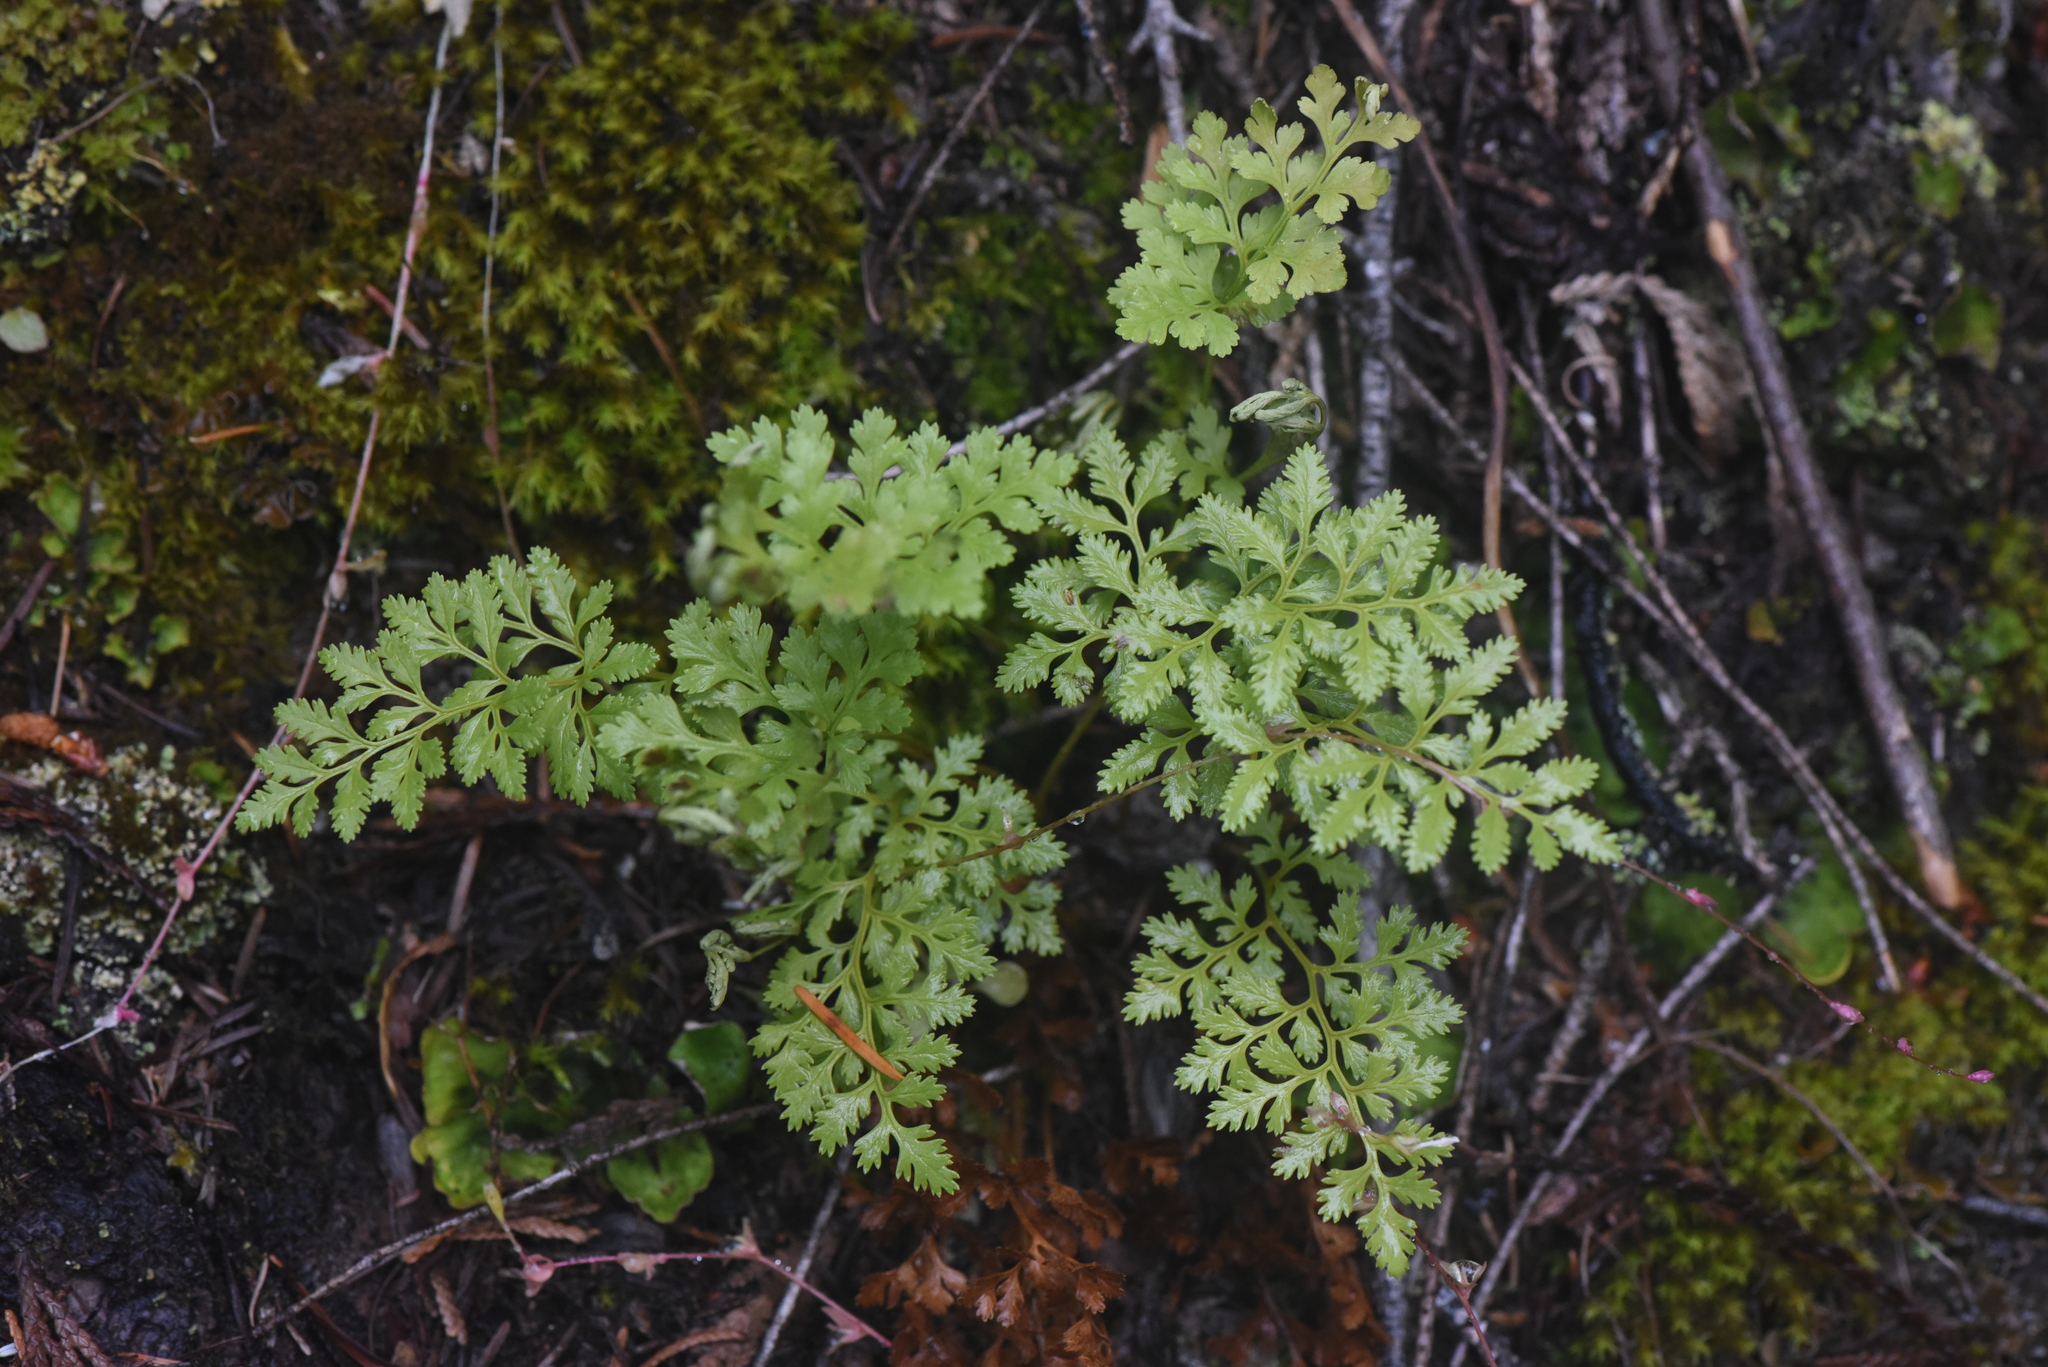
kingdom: Plantae
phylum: Tracheophyta
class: Polypodiopsida
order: Polypodiales
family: Pteridaceae
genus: Cryptogramma
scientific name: Cryptogramma acrostichoides
